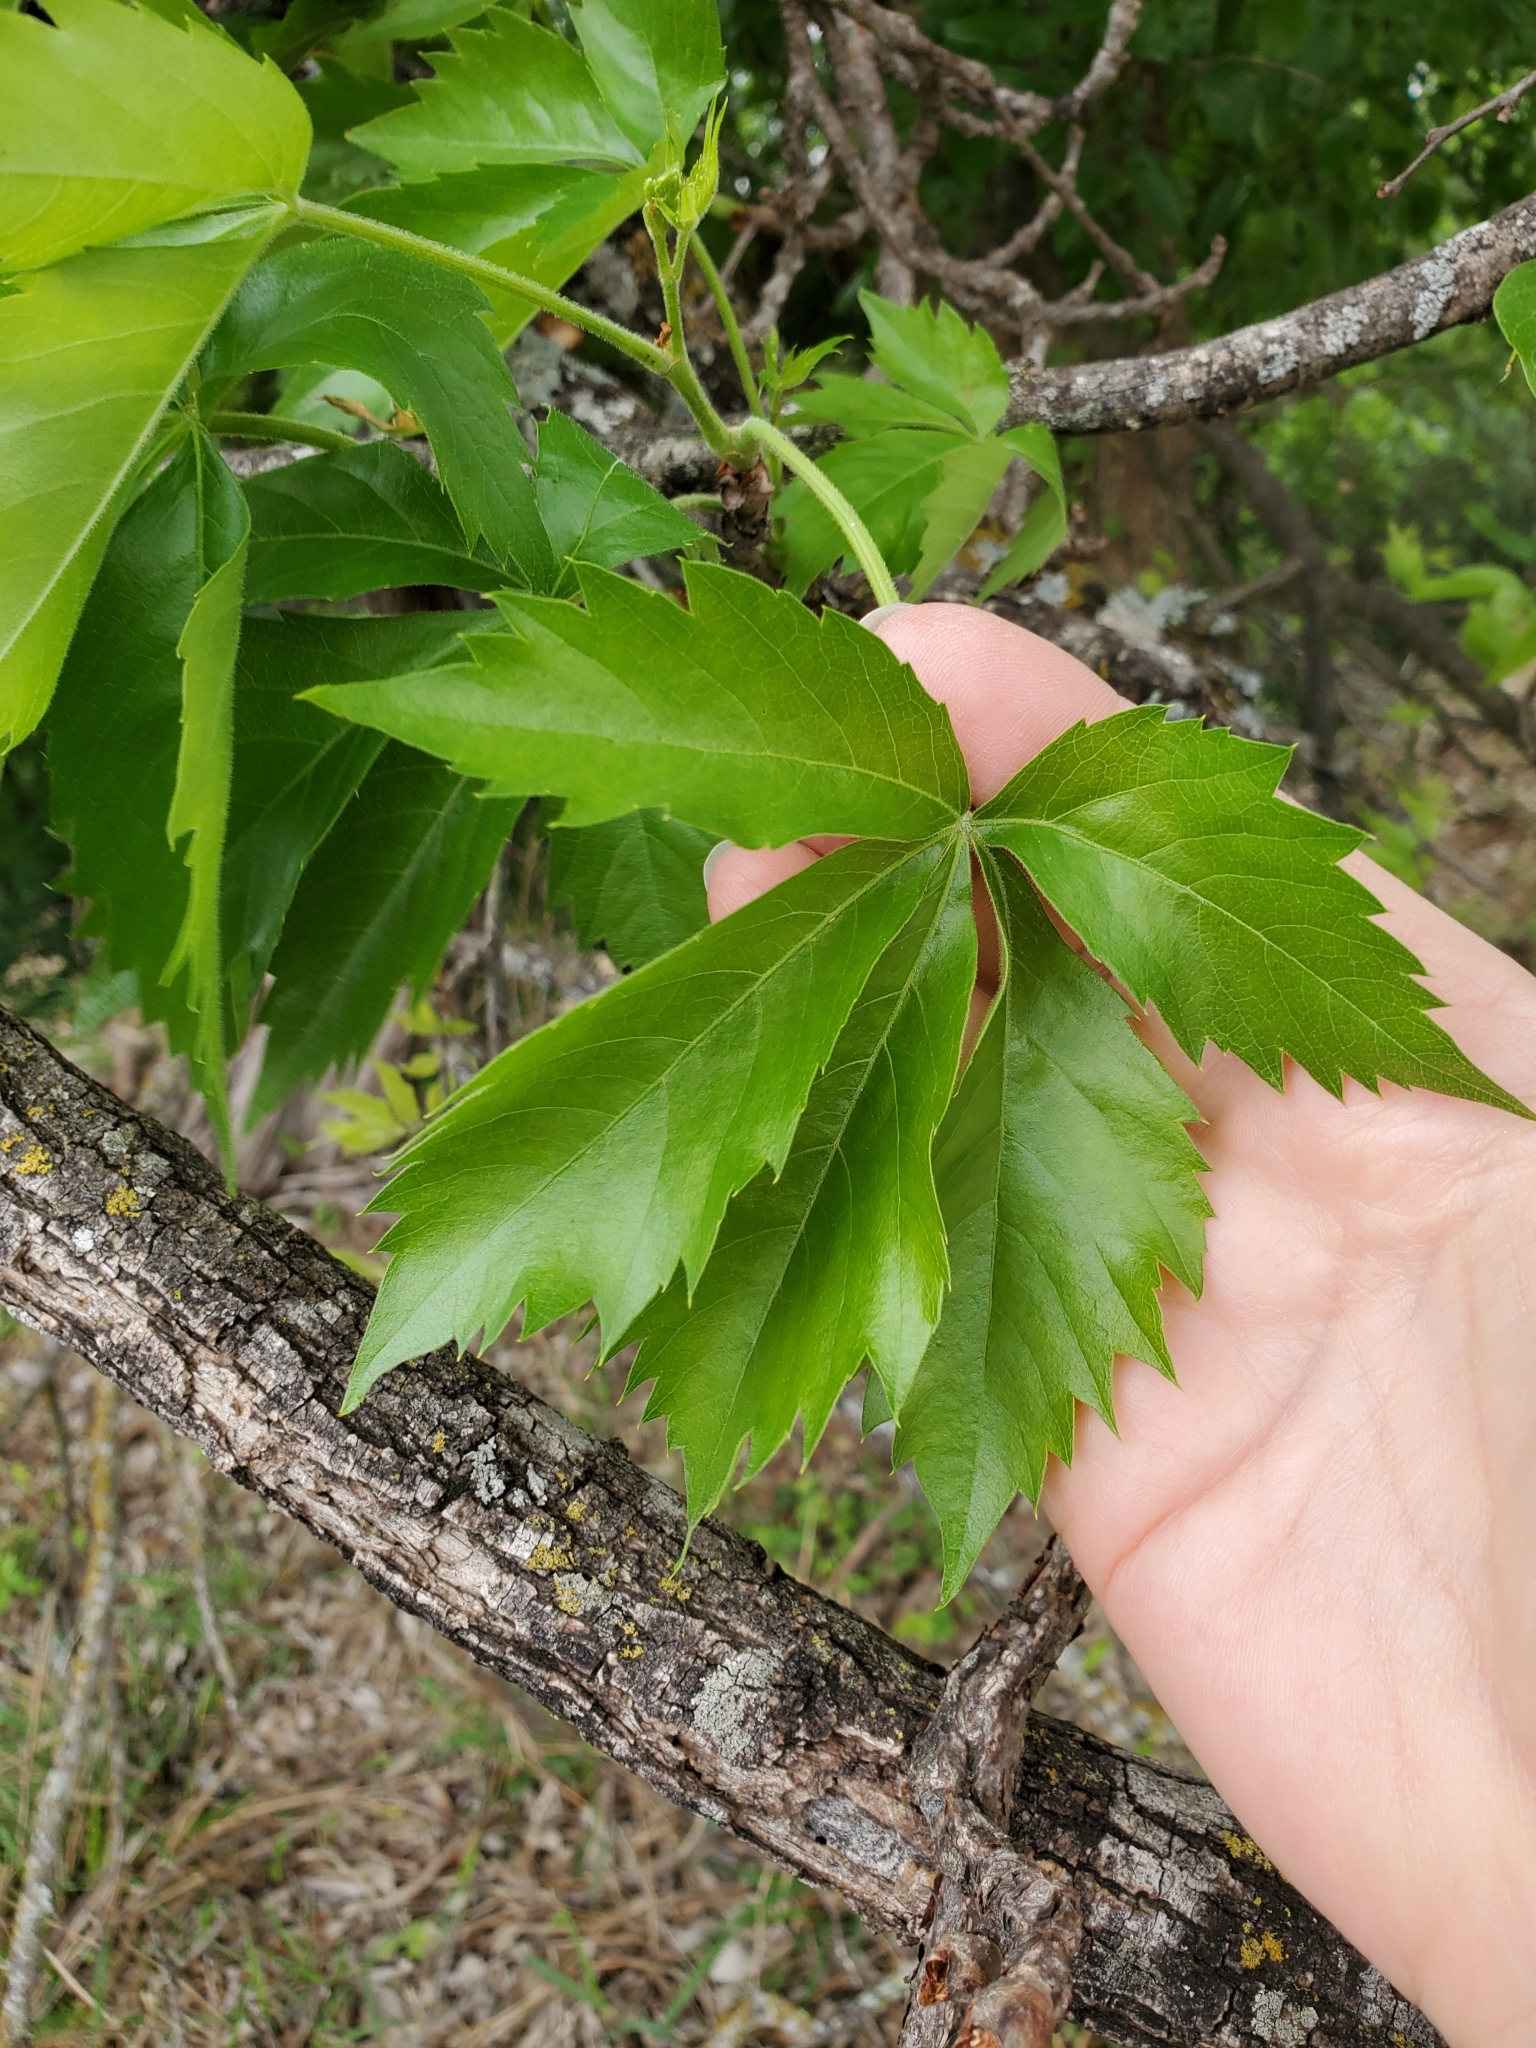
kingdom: Plantae
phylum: Tracheophyta
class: Magnoliopsida
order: Vitales
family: Vitaceae
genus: Parthenocissus
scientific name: Parthenocissus quinquefolia
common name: Virginia-creeper
